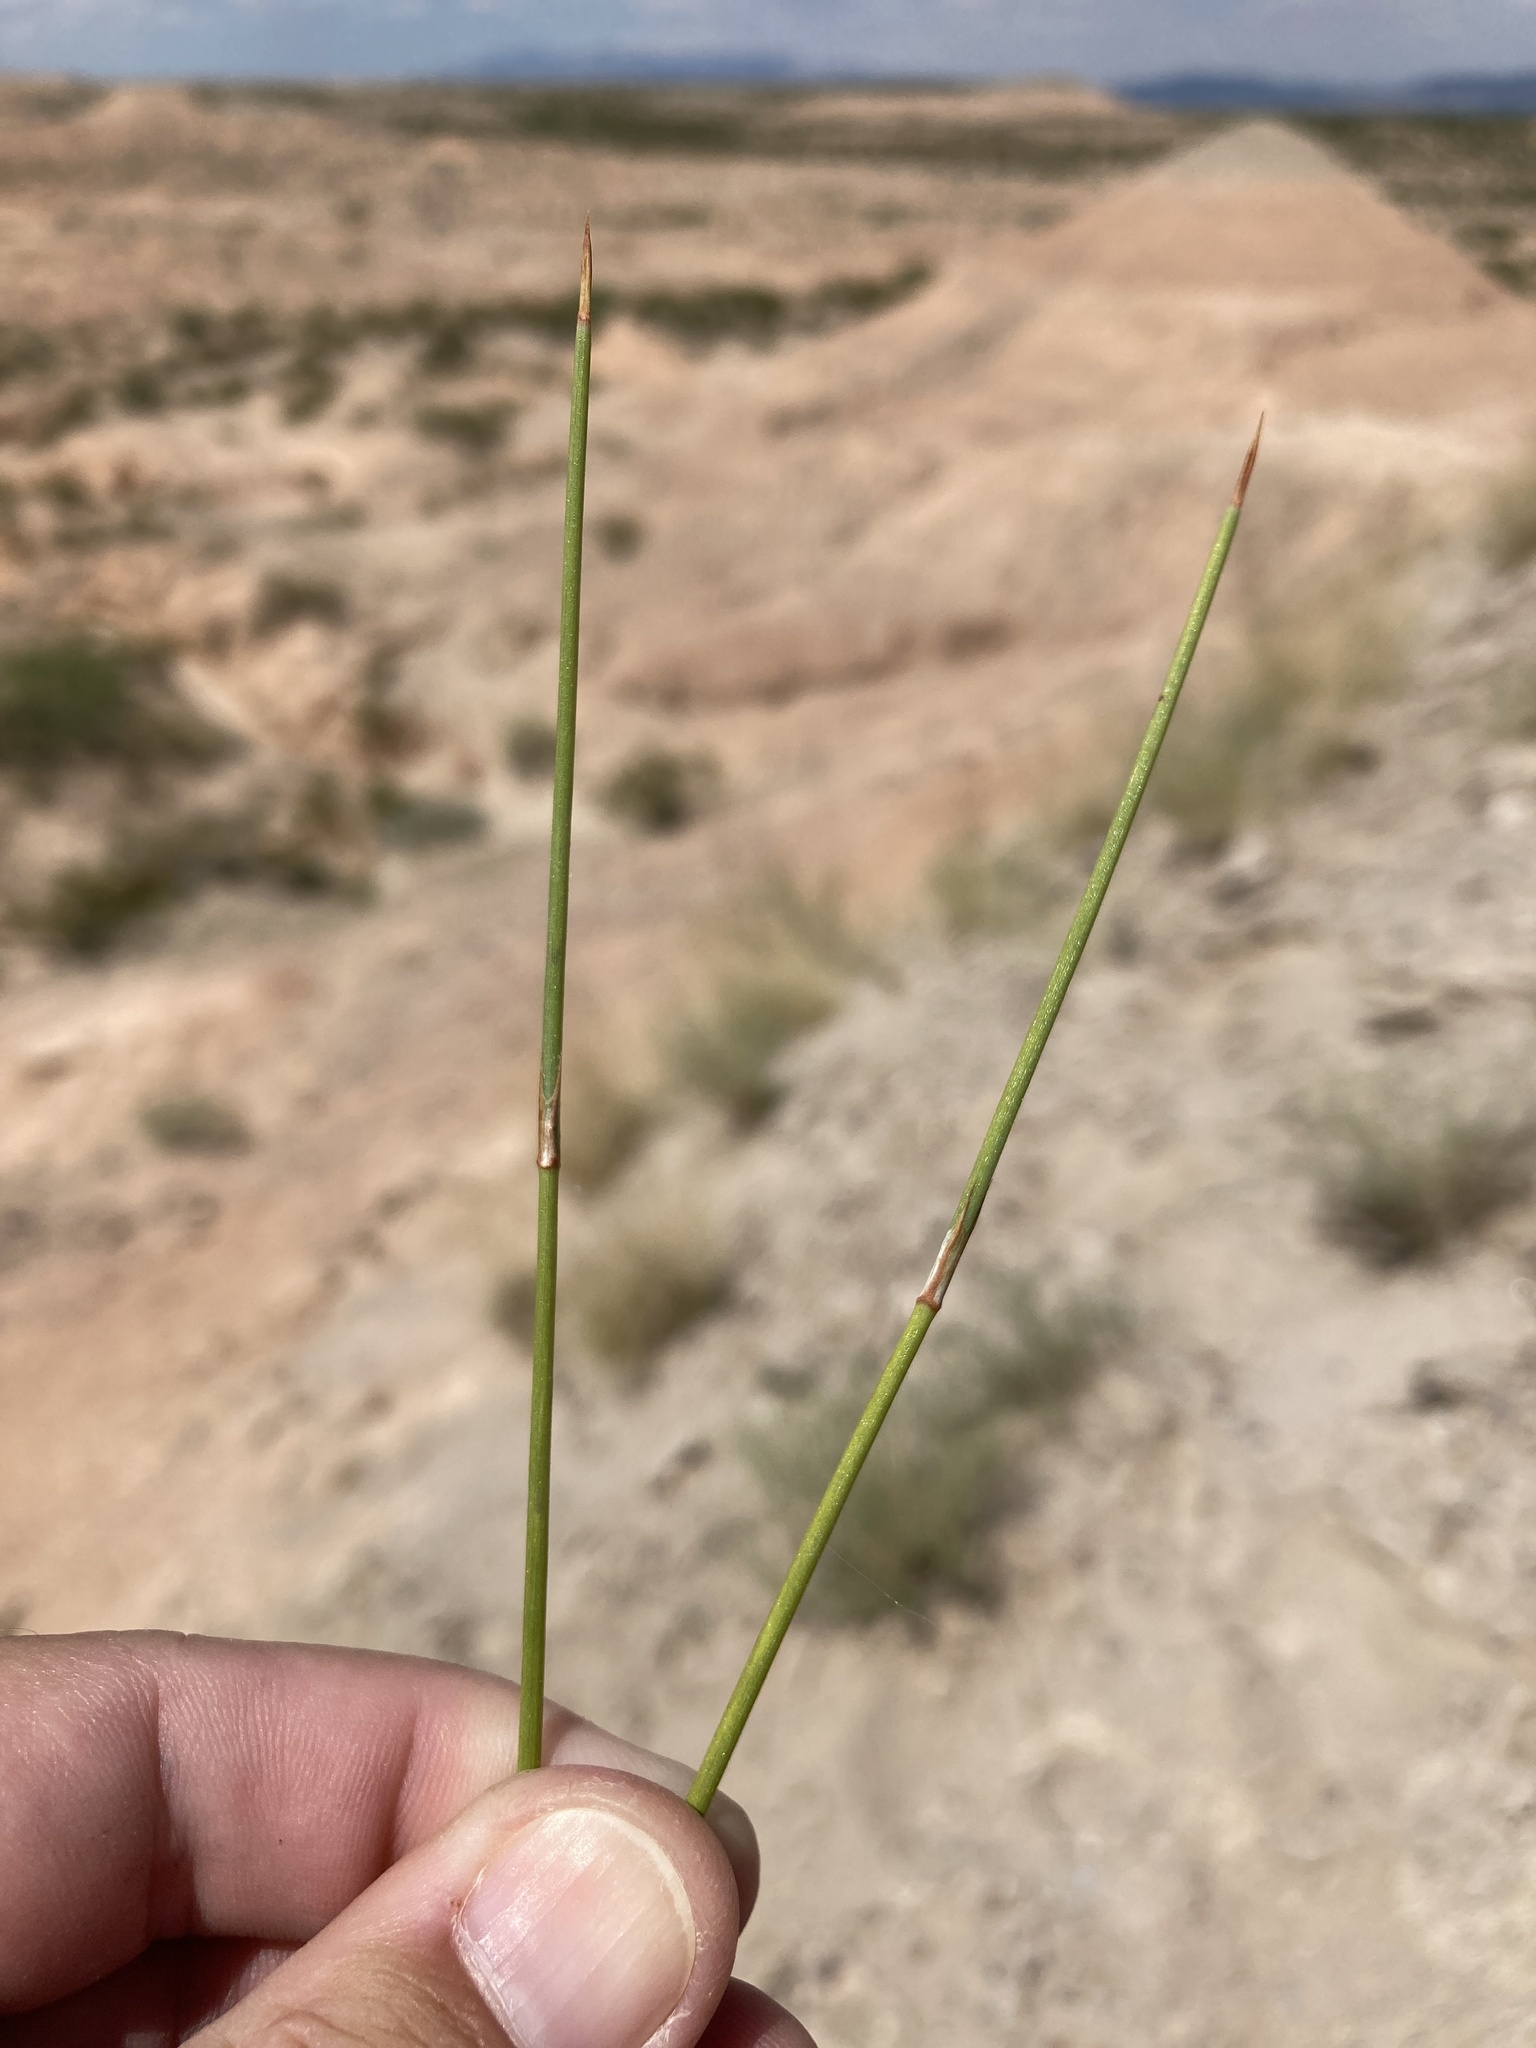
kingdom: Plantae
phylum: Tracheophyta
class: Gnetopsida
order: Ephedrales
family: Ephedraceae
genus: Ephedra
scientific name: Ephedra trifurca
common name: Mexican-tea
